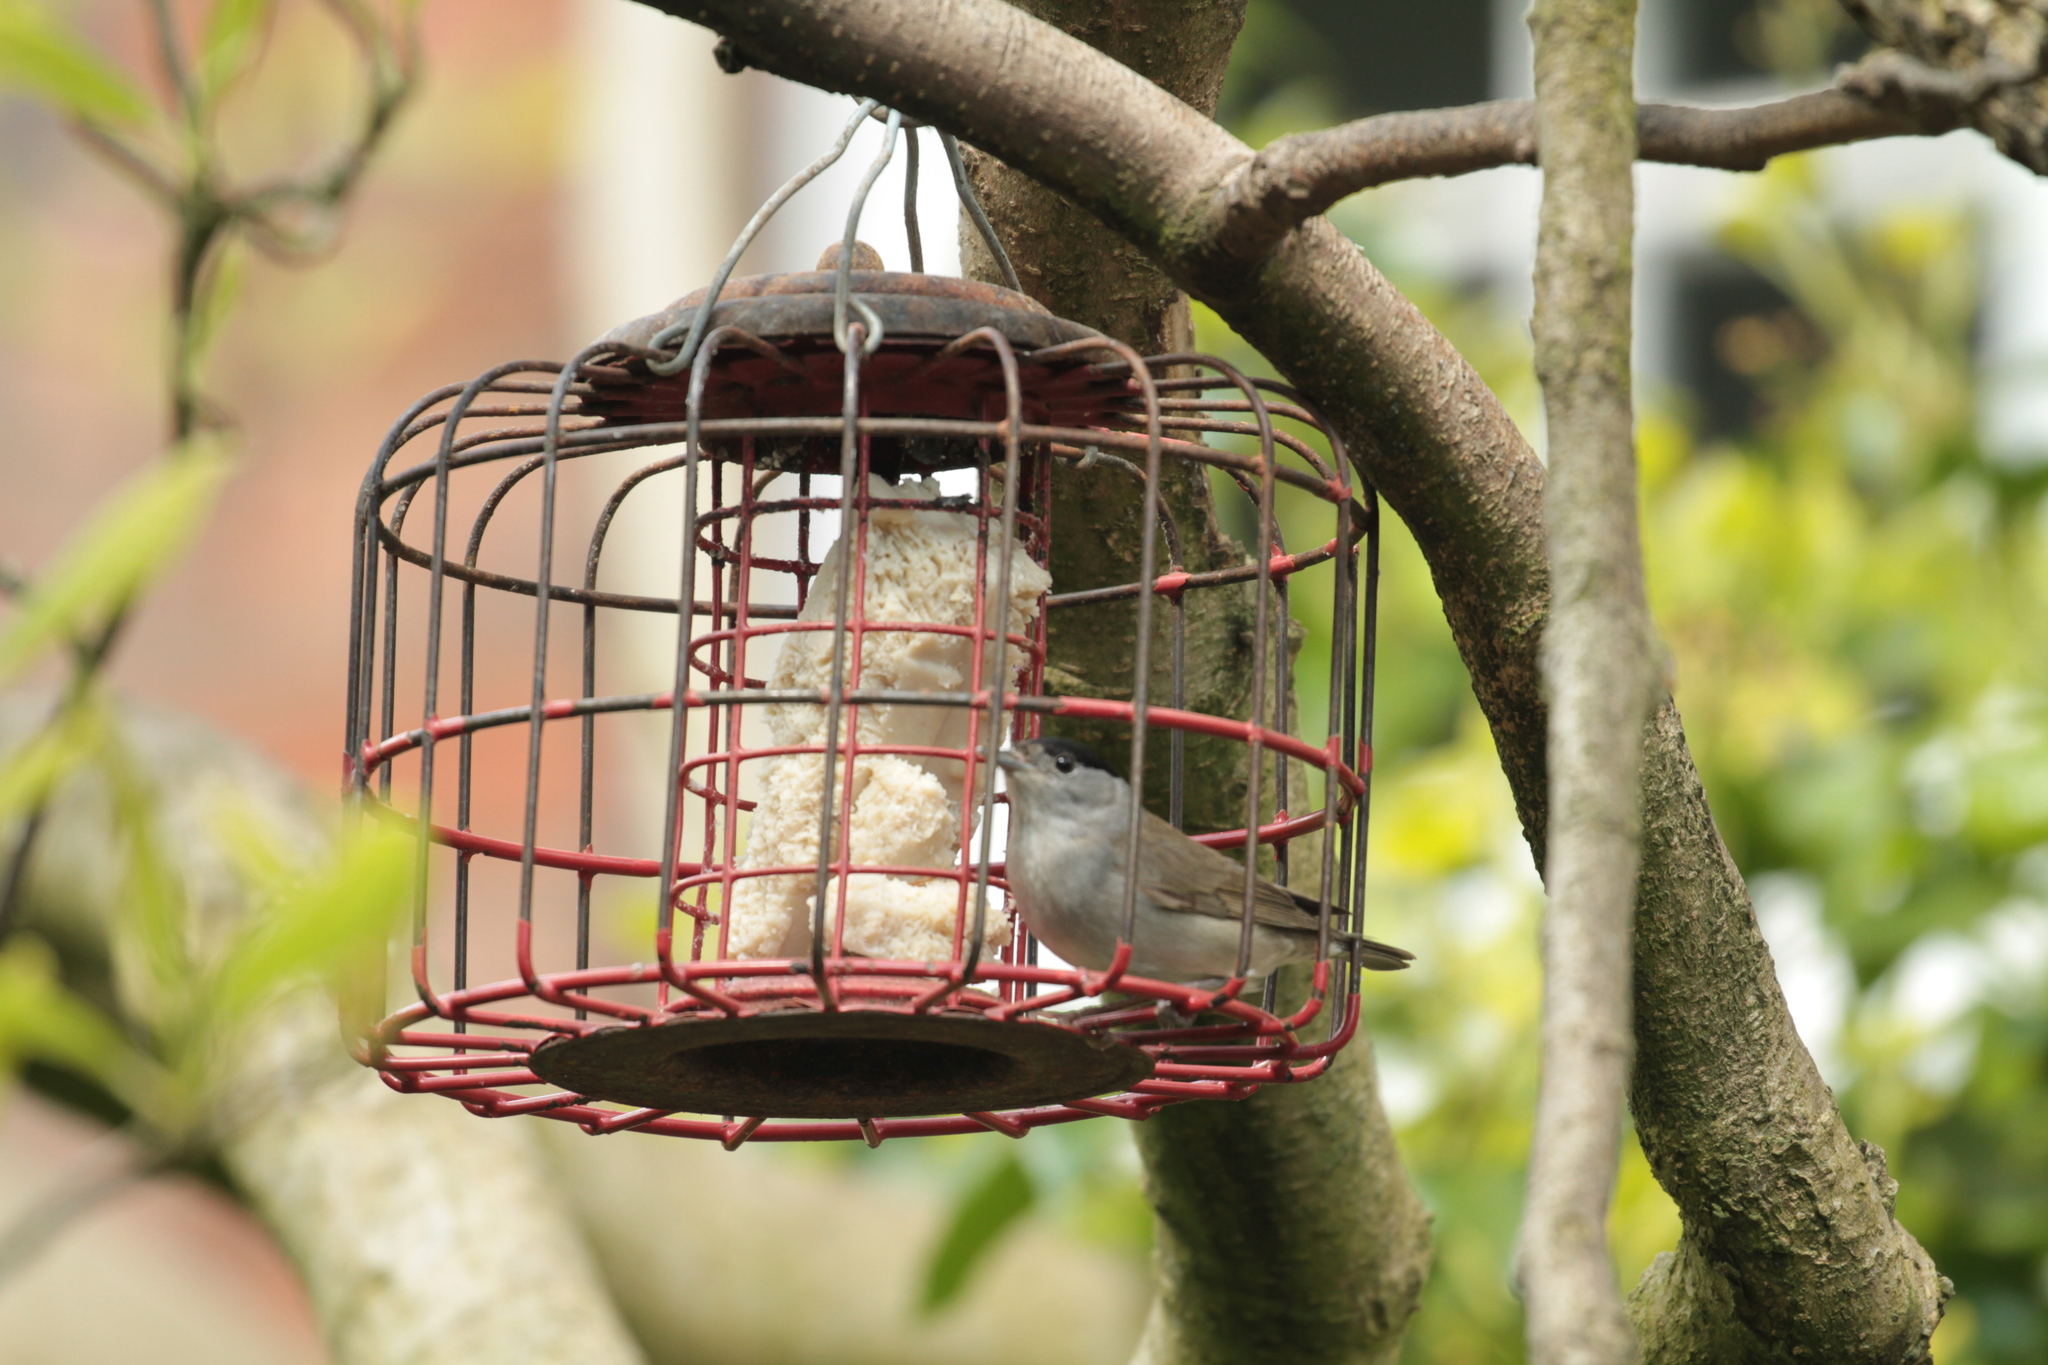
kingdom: Animalia
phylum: Chordata
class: Aves
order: Passeriformes
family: Sylviidae
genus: Sylvia
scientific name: Sylvia atricapilla
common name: Eurasian blackcap
